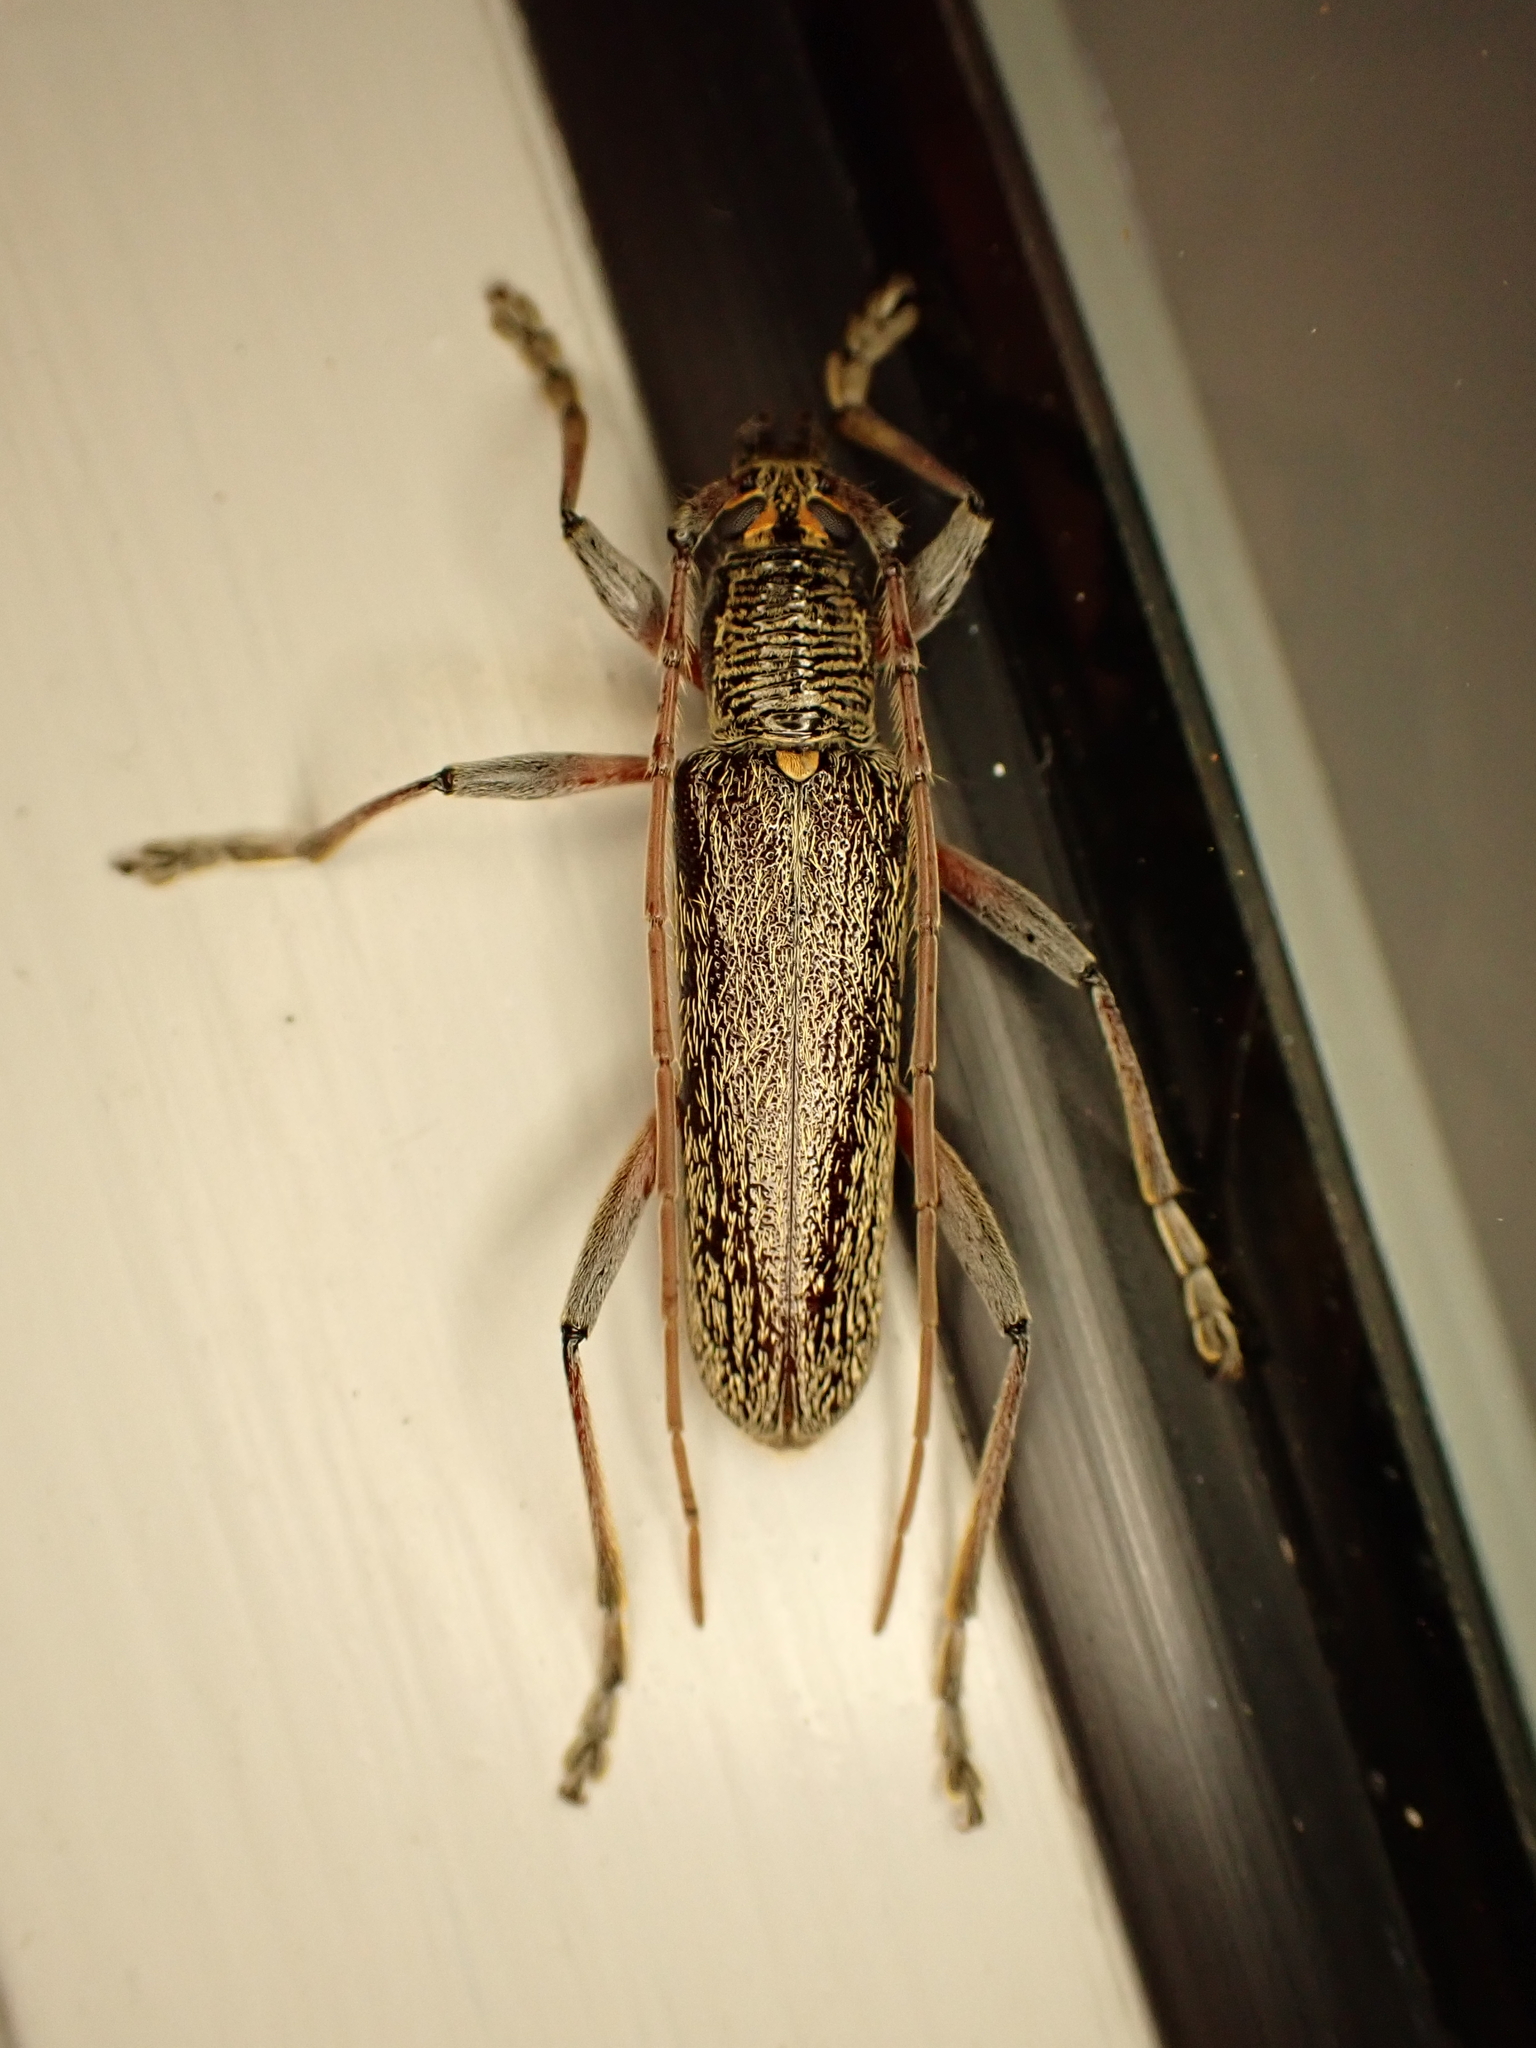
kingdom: Animalia
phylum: Arthropoda
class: Insecta
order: Coleoptera
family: Cerambycidae
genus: Oemona
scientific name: Oemona hirta
